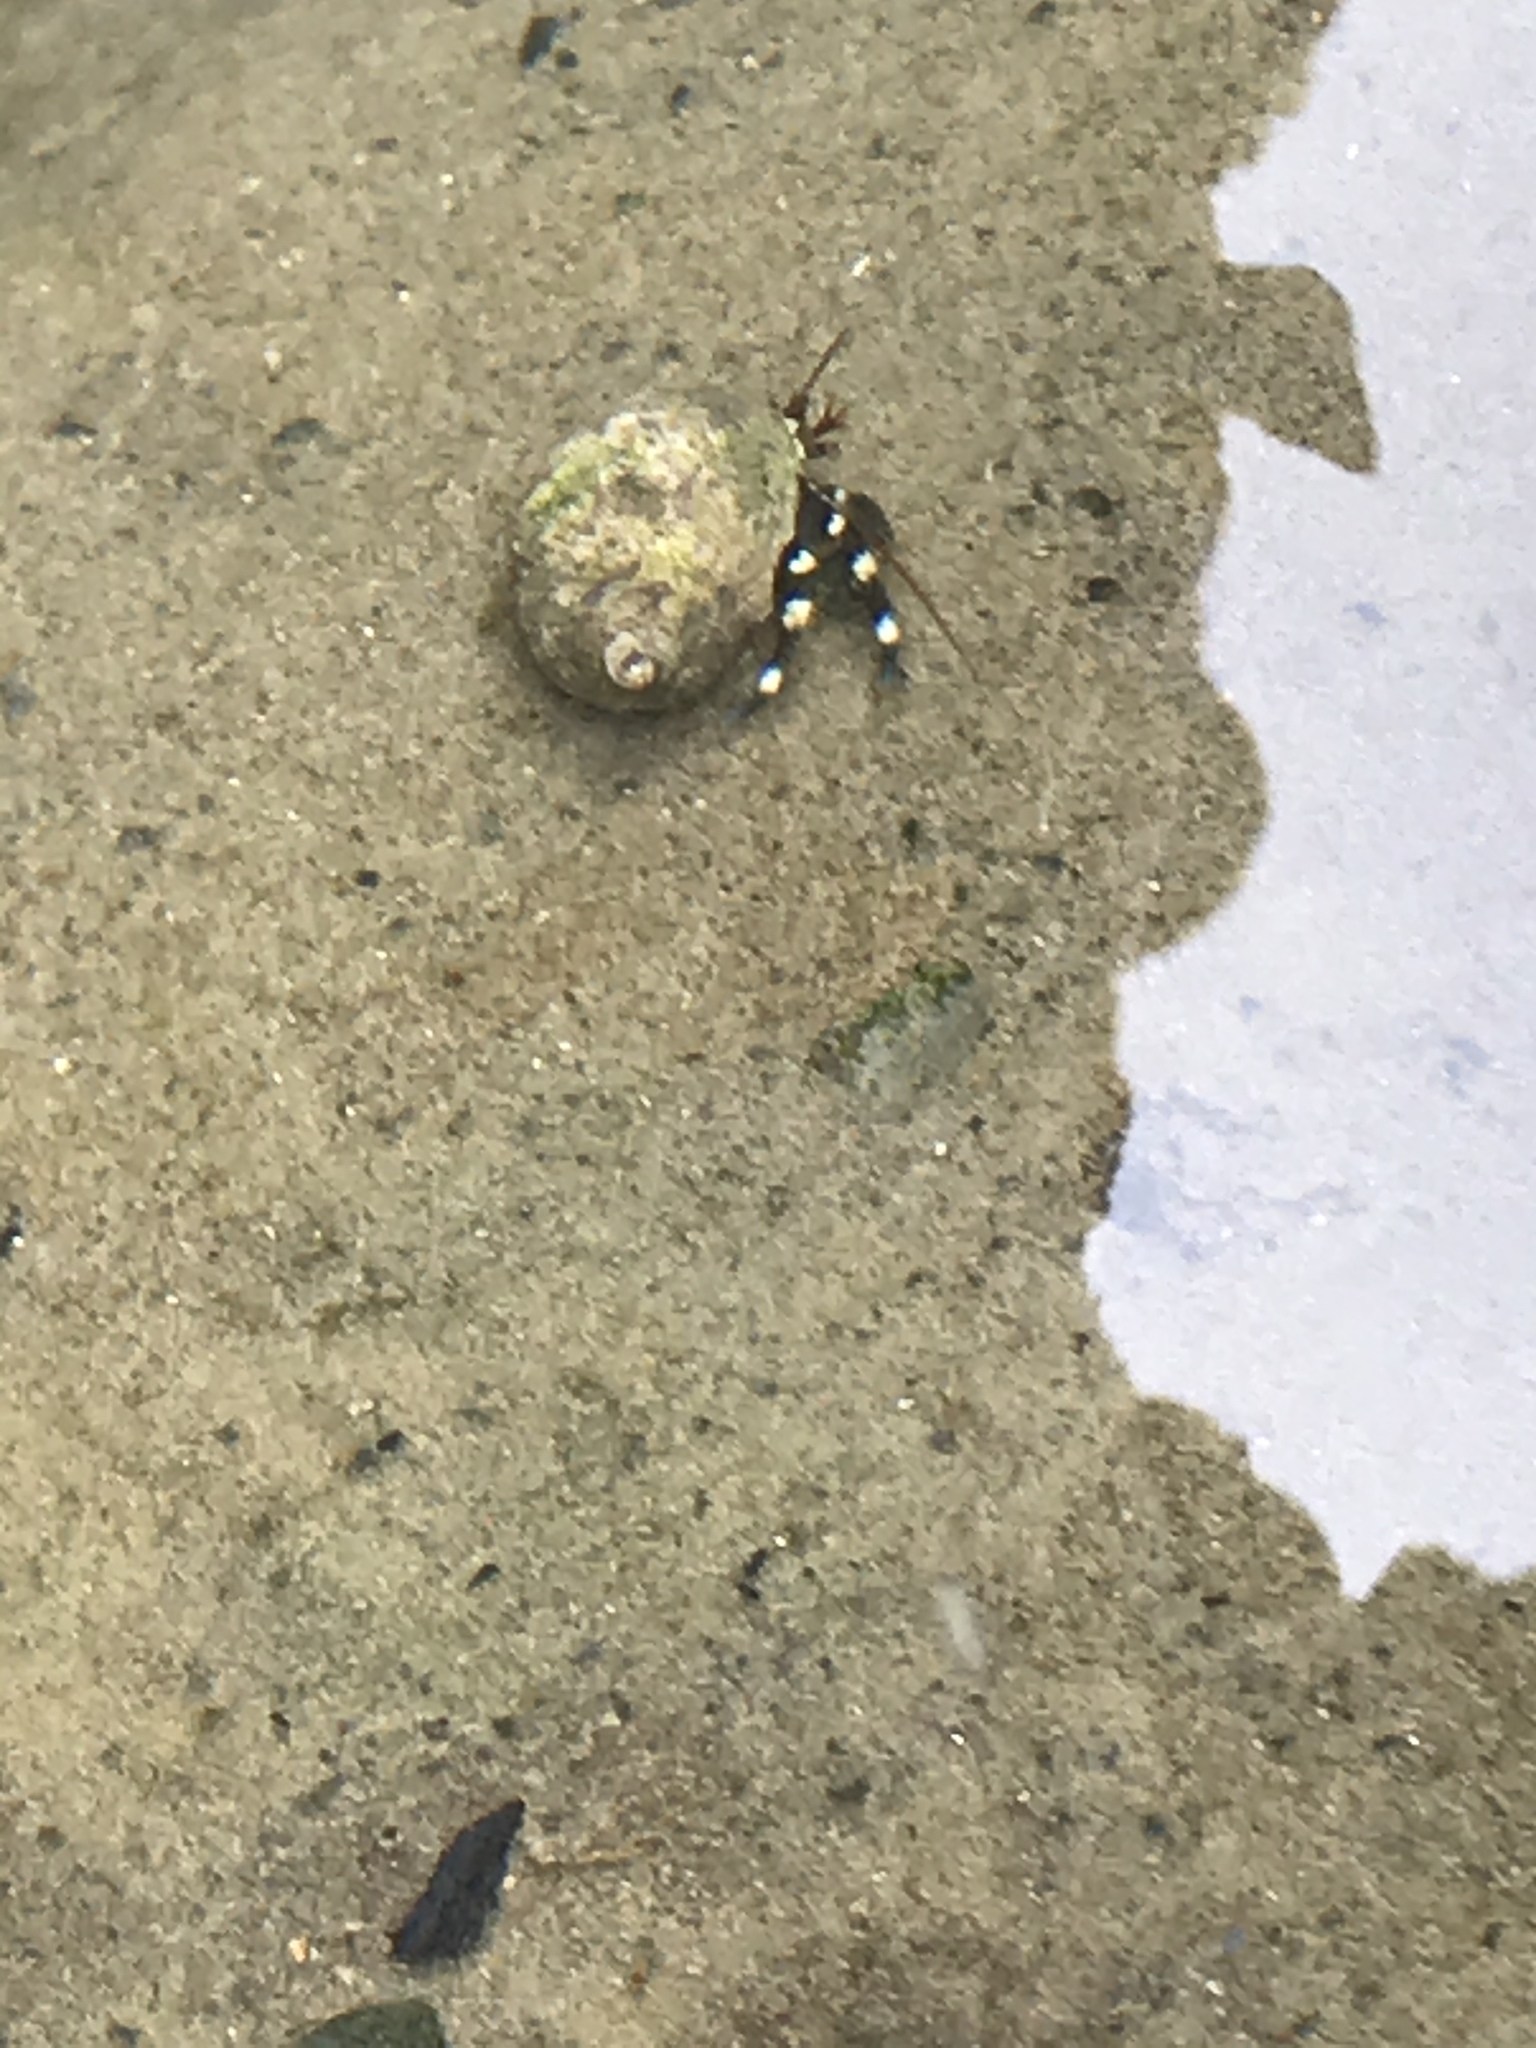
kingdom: Animalia
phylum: Arthropoda
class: Malacostraca
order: Decapoda
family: Paguridae
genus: Pagurus
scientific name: Pagurus samuelis
